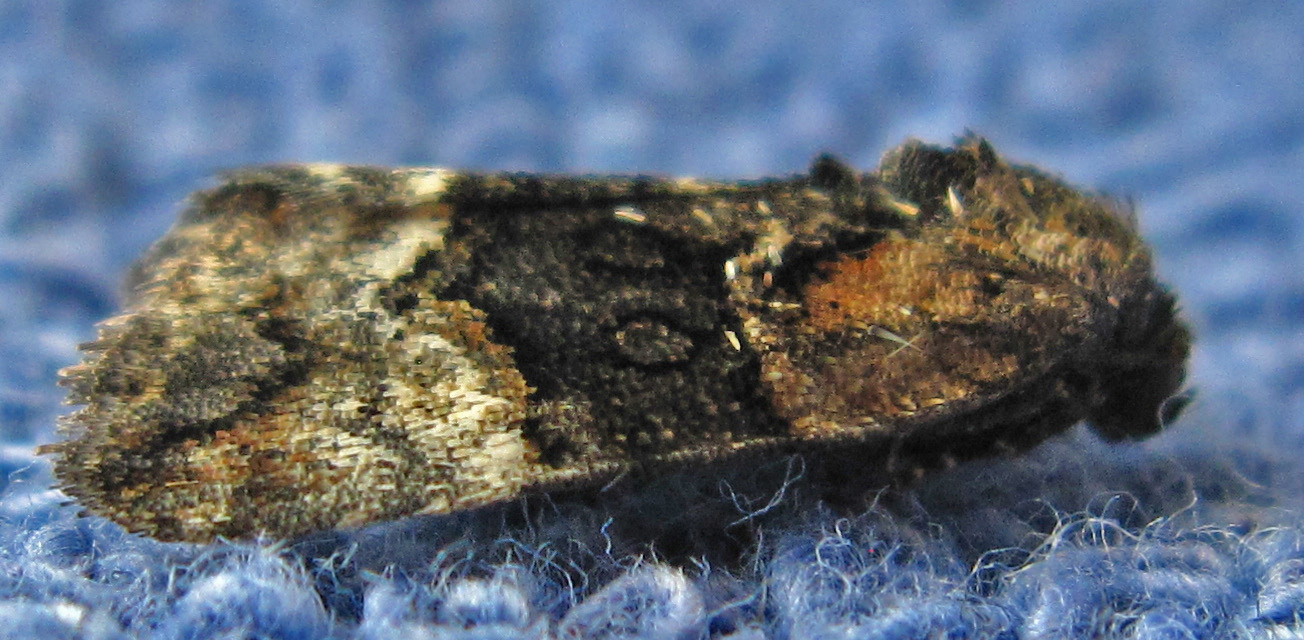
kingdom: Animalia
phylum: Arthropoda
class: Insecta
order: Lepidoptera
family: Noctuidae
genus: Elaphria
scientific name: Elaphria georgei
